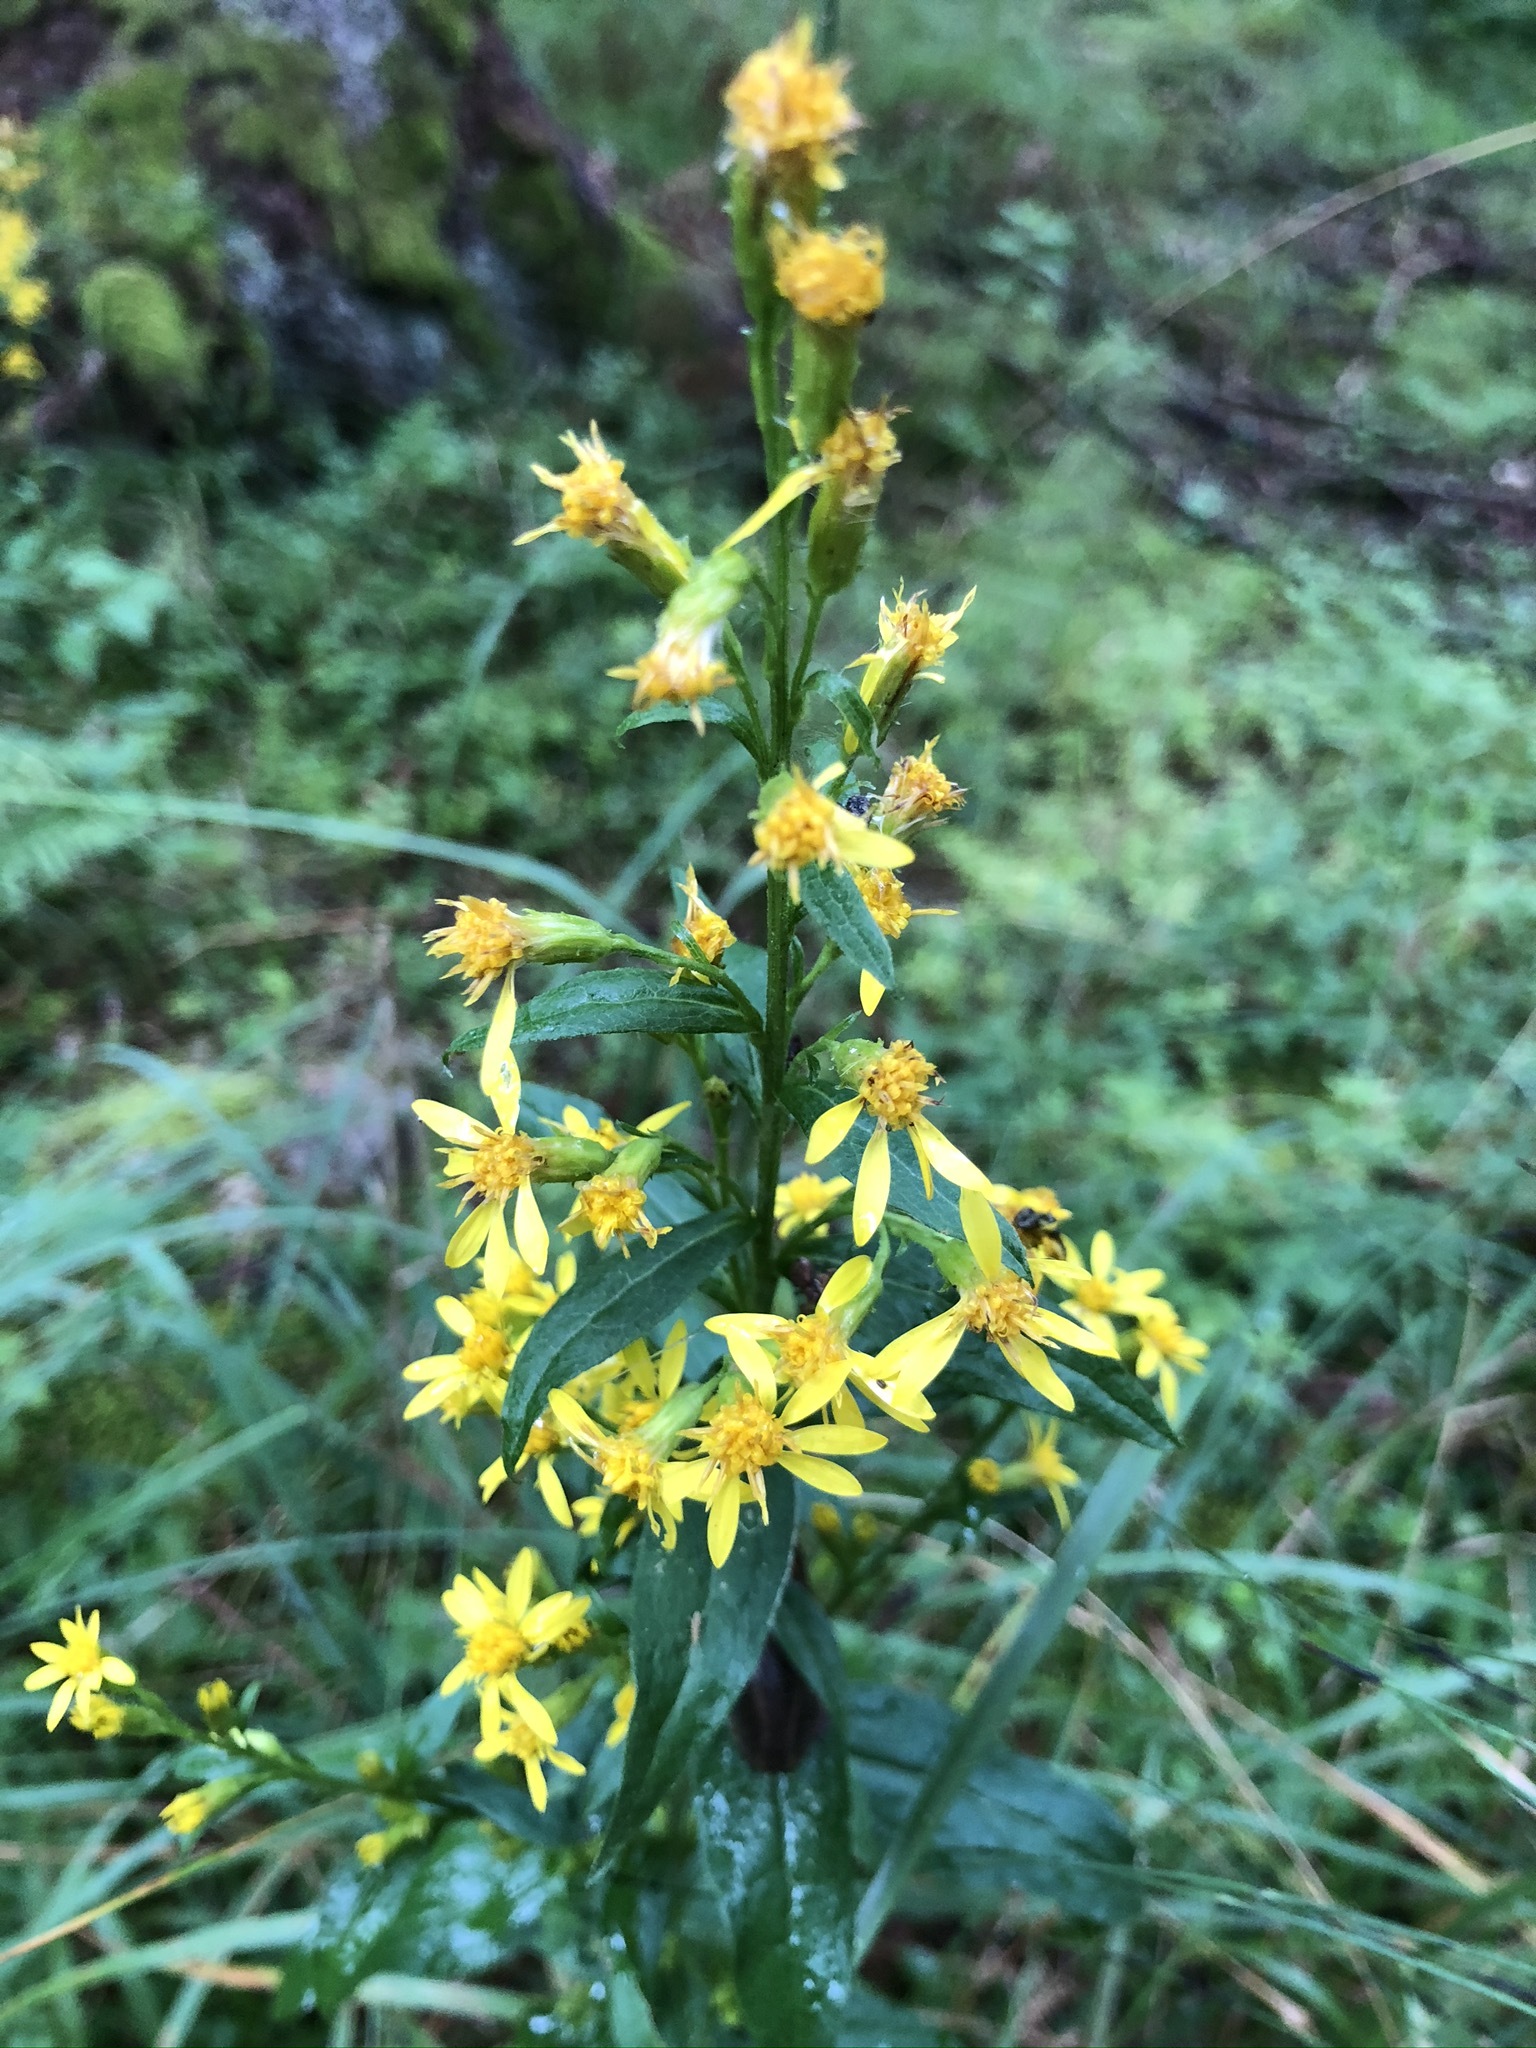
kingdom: Plantae
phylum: Tracheophyta
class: Magnoliopsida
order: Asterales
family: Asteraceae
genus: Solidago
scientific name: Solidago virgaurea
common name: Goldenrod
